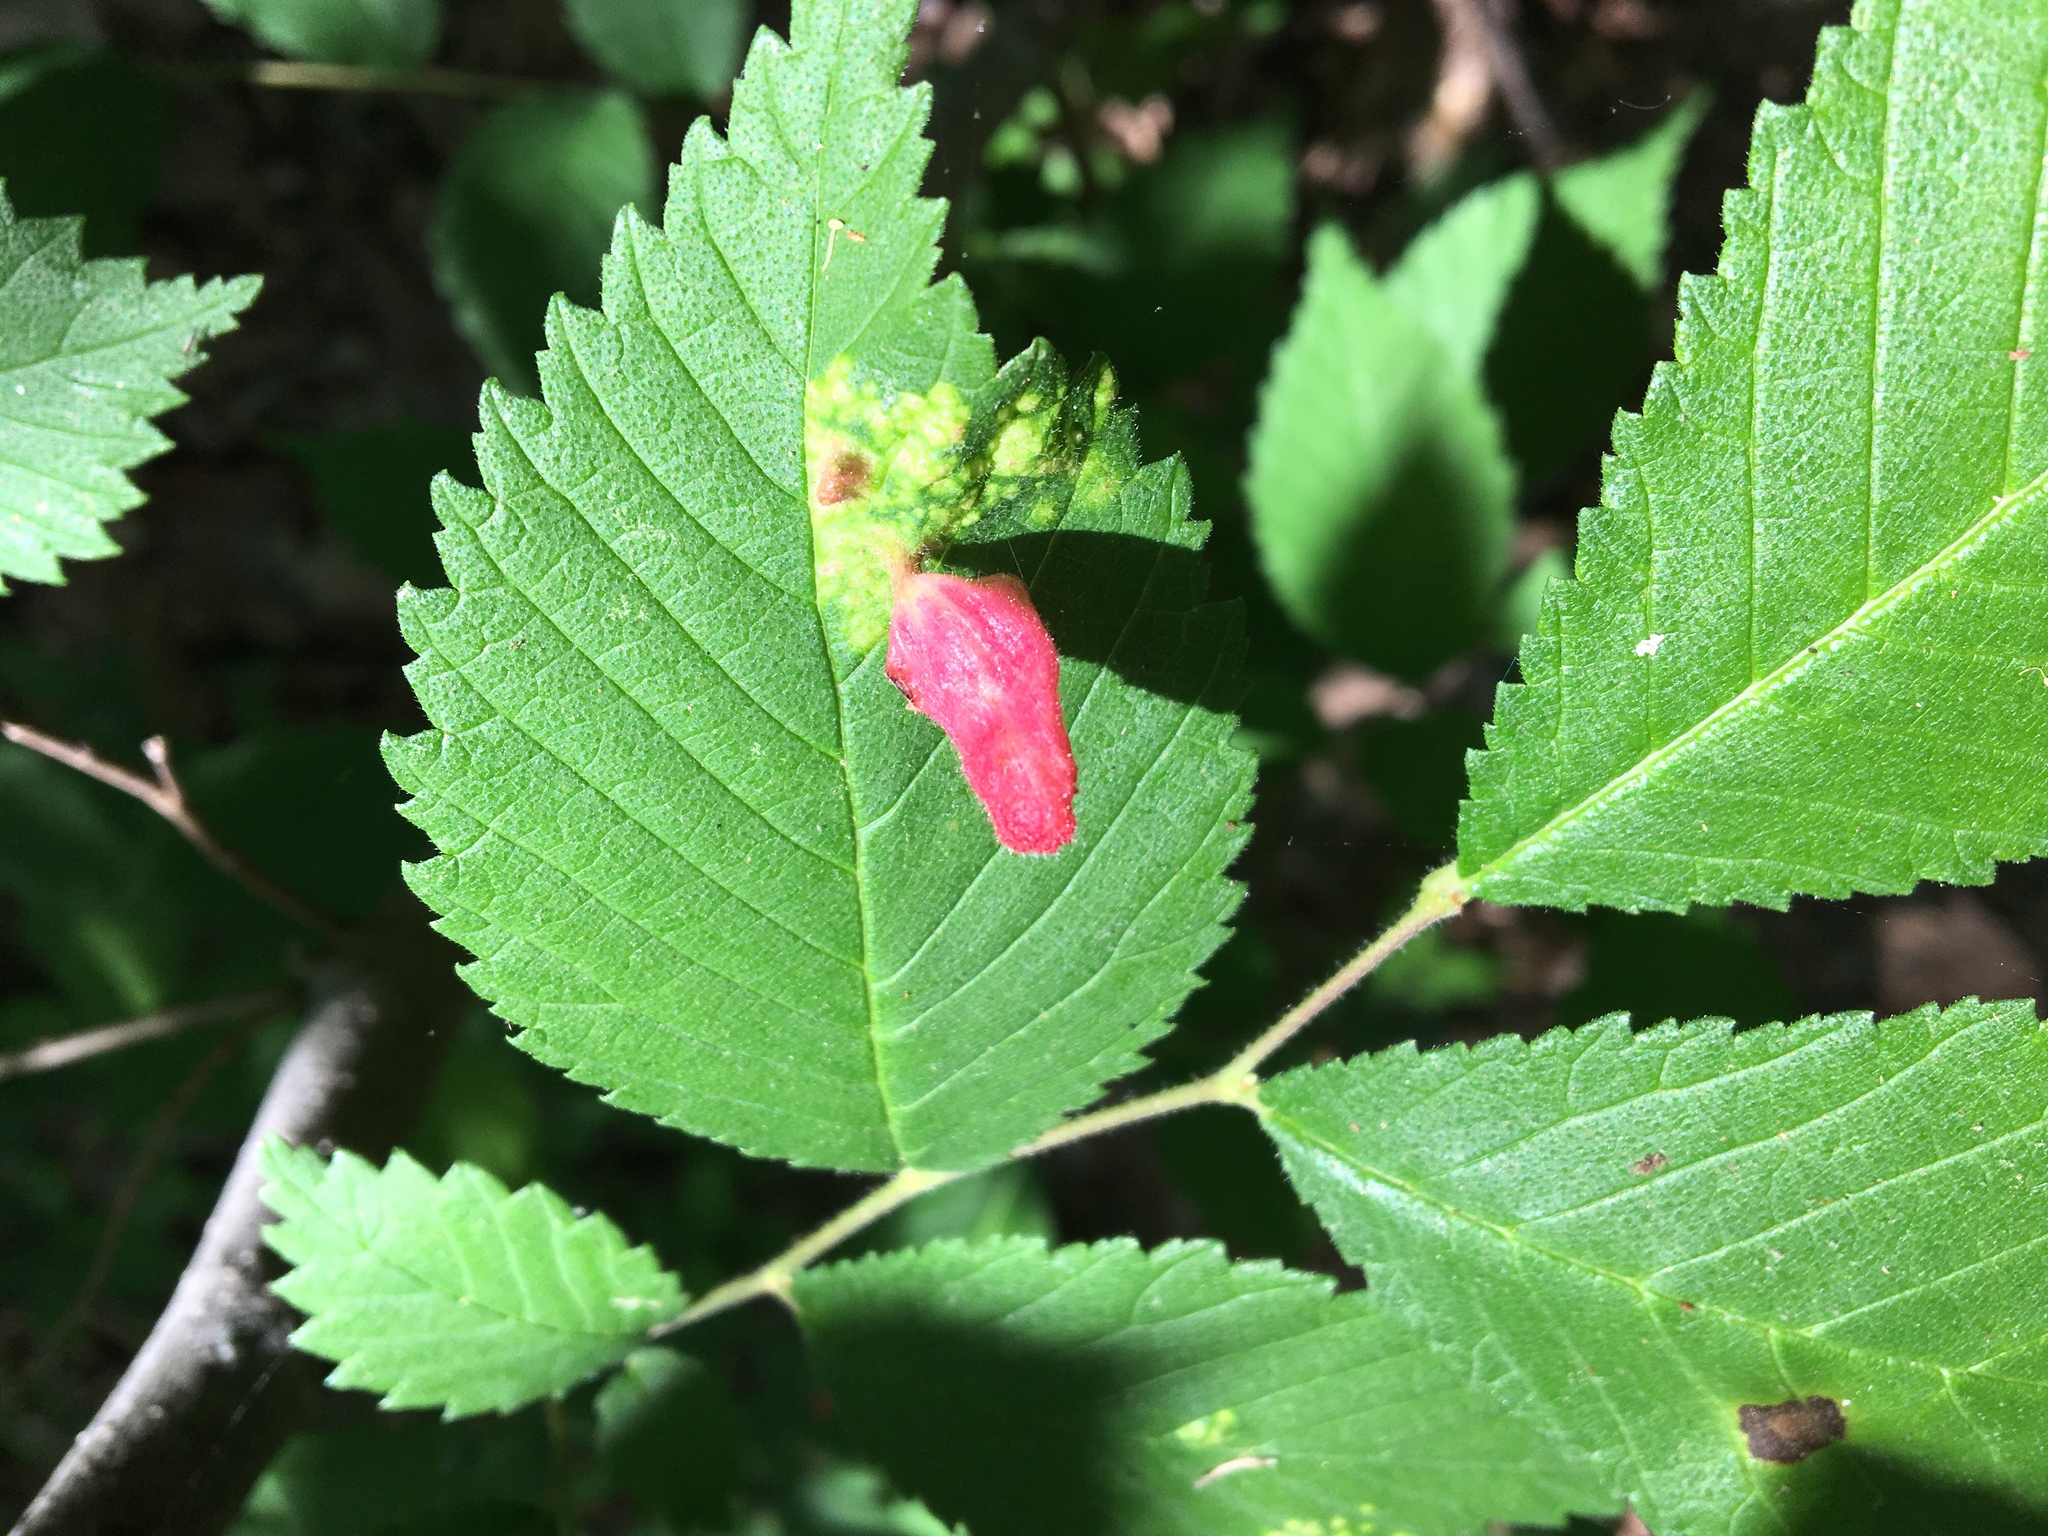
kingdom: Animalia
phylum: Arthropoda
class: Insecta
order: Hemiptera
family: Aphididae
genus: Tetraneura
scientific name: Tetraneura nigriabdominalis
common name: Aphid
